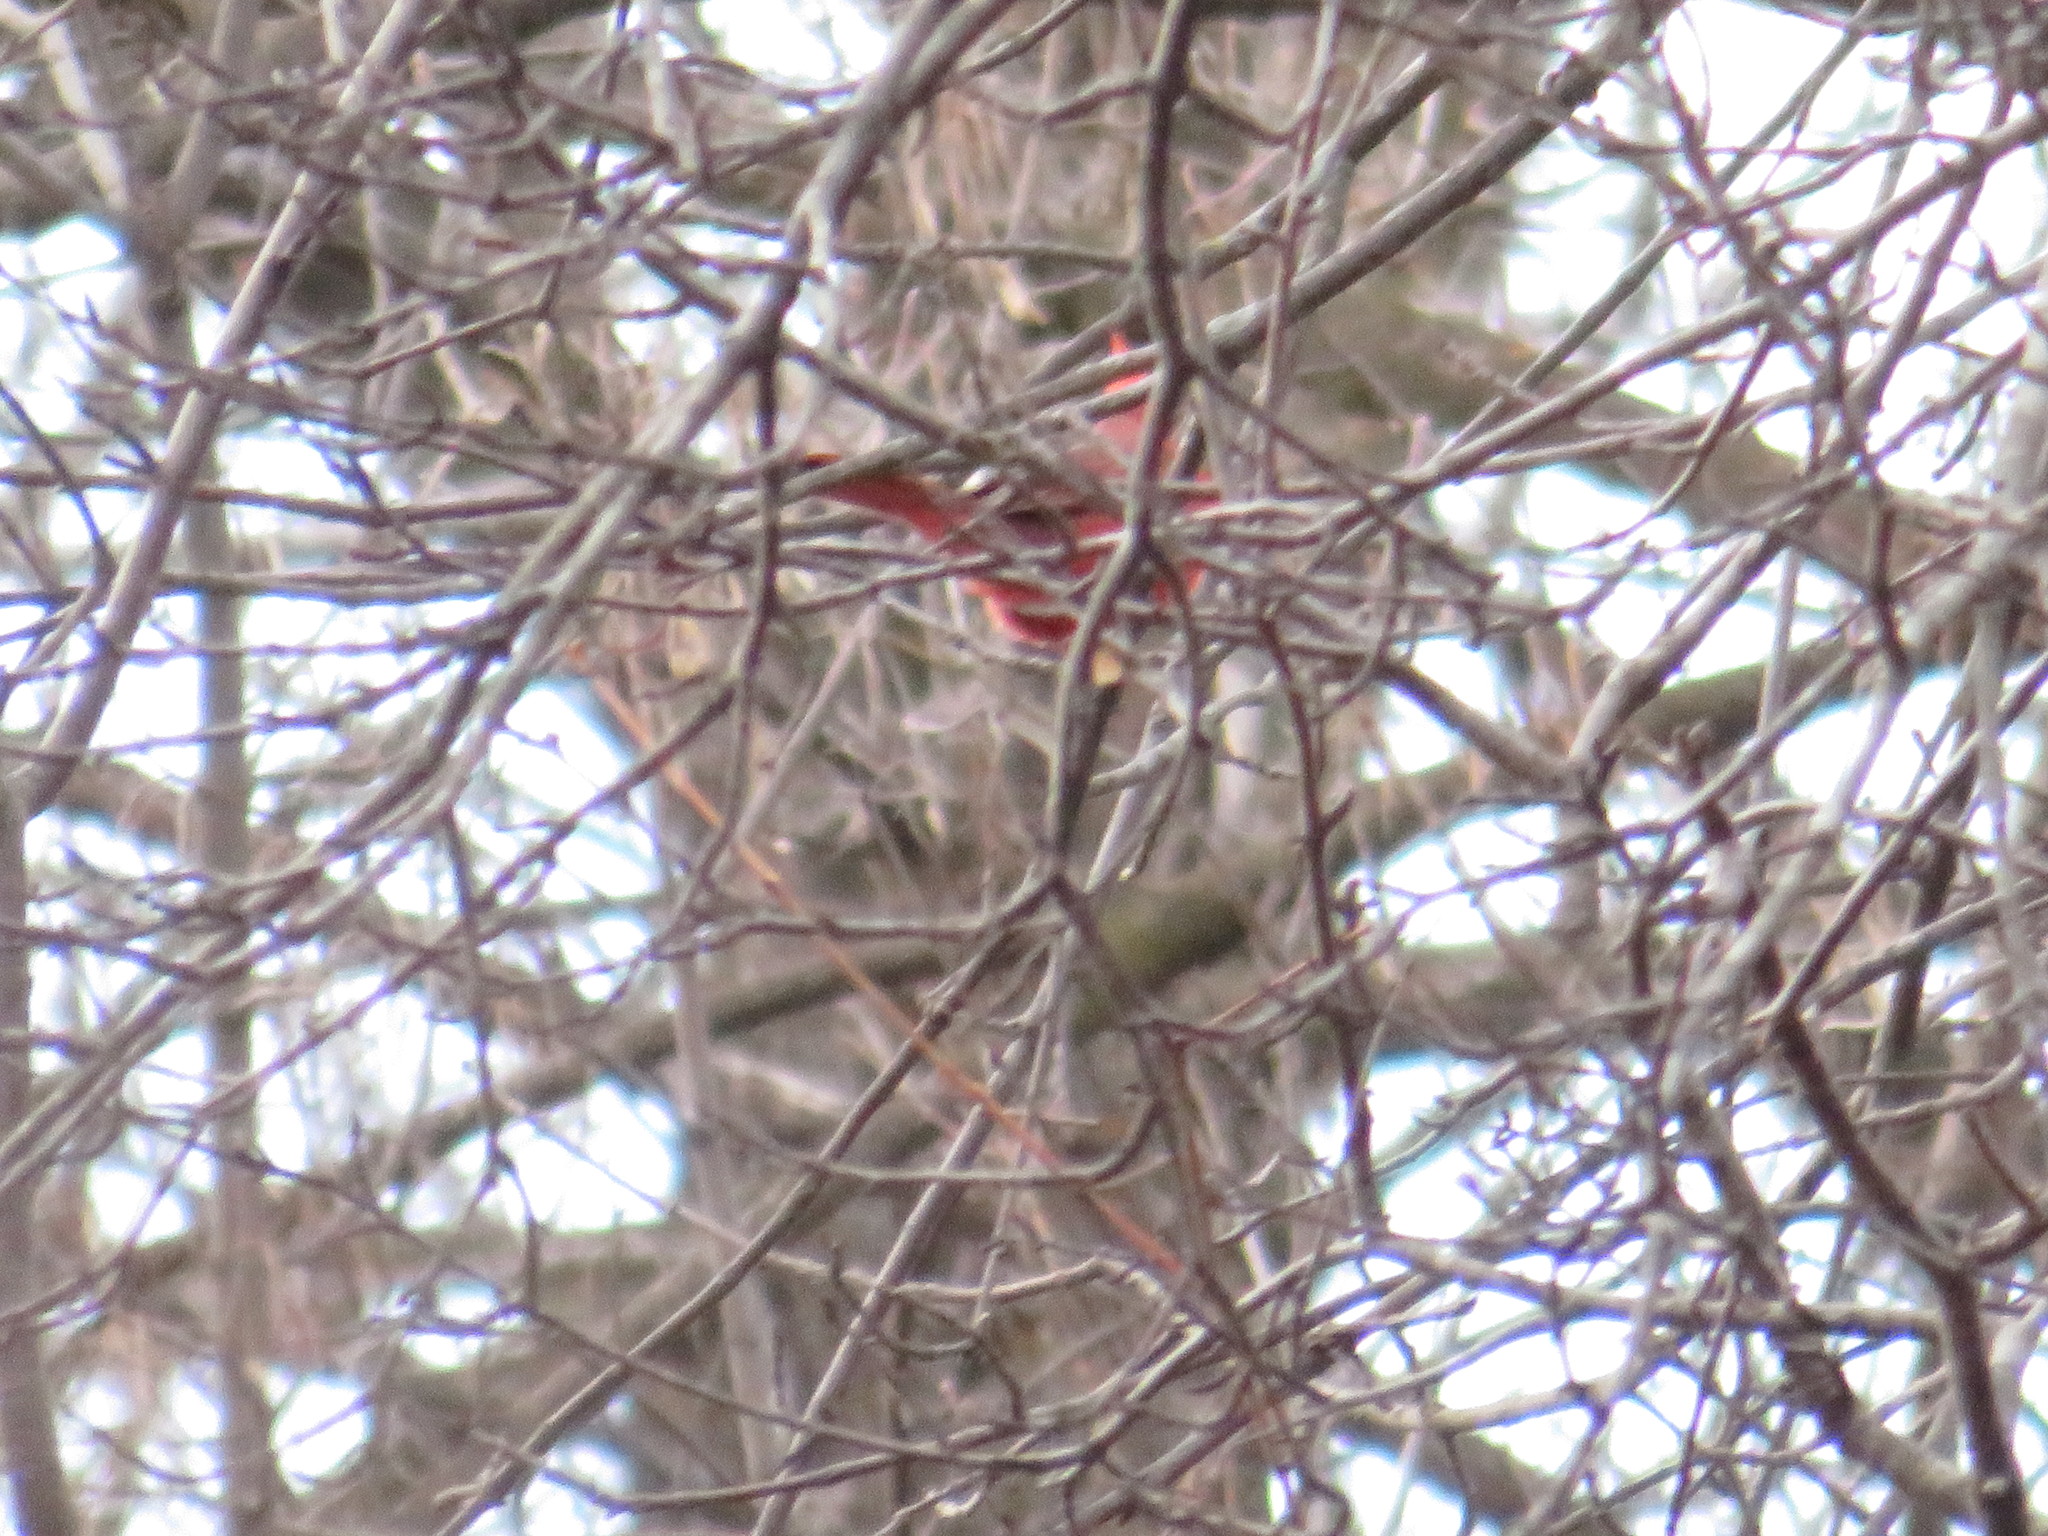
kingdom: Animalia
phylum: Chordata
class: Aves
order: Passeriformes
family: Cardinalidae
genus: Cardinalis
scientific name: Cardinalis cardinalis
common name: Northern cardinal
